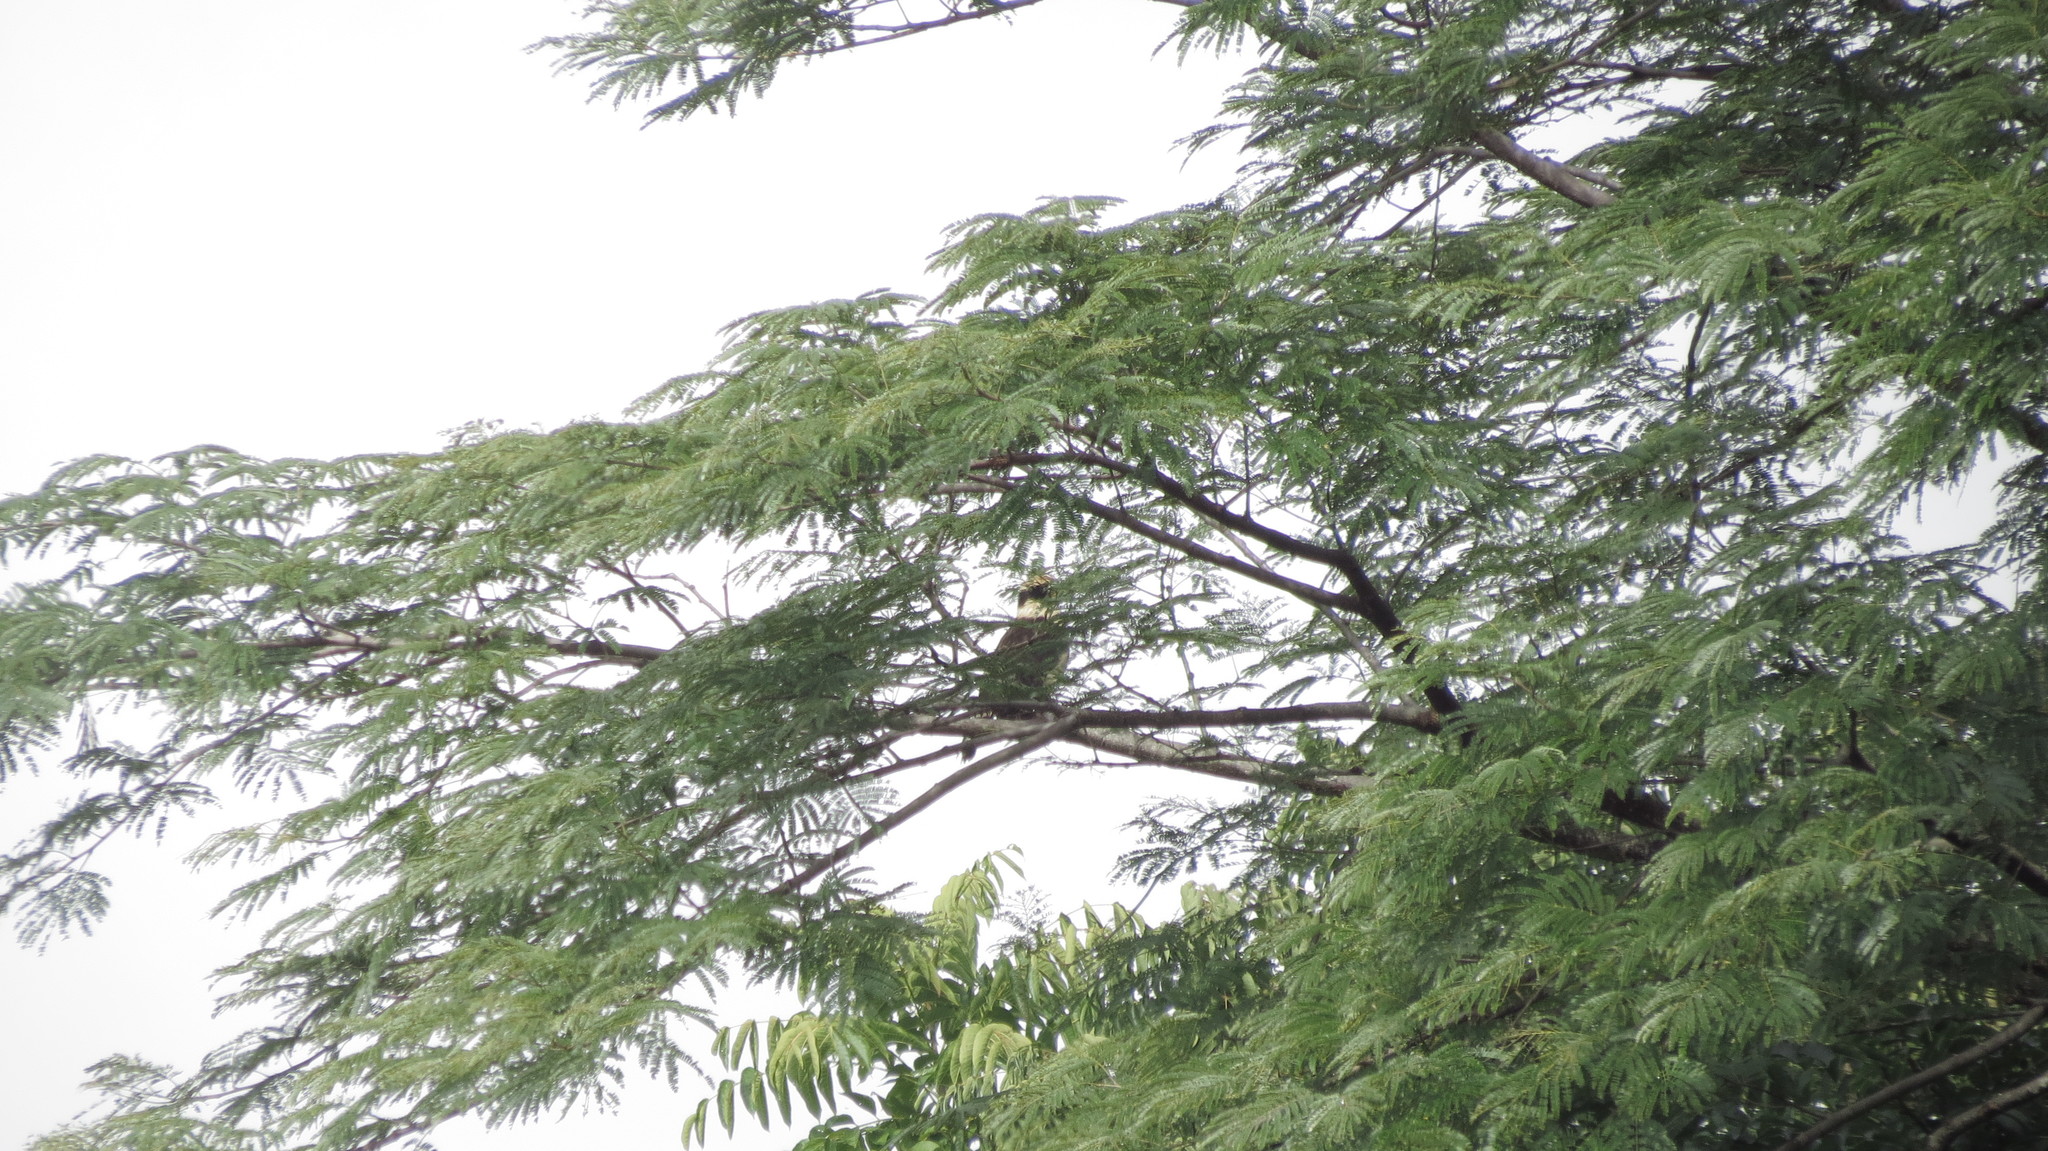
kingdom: Animalia
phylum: Chordata
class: Aves
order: Falconiformes
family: Falconidae
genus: Herpetotheres
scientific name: Herpetotheres cachinnans
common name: Laughing falcon
